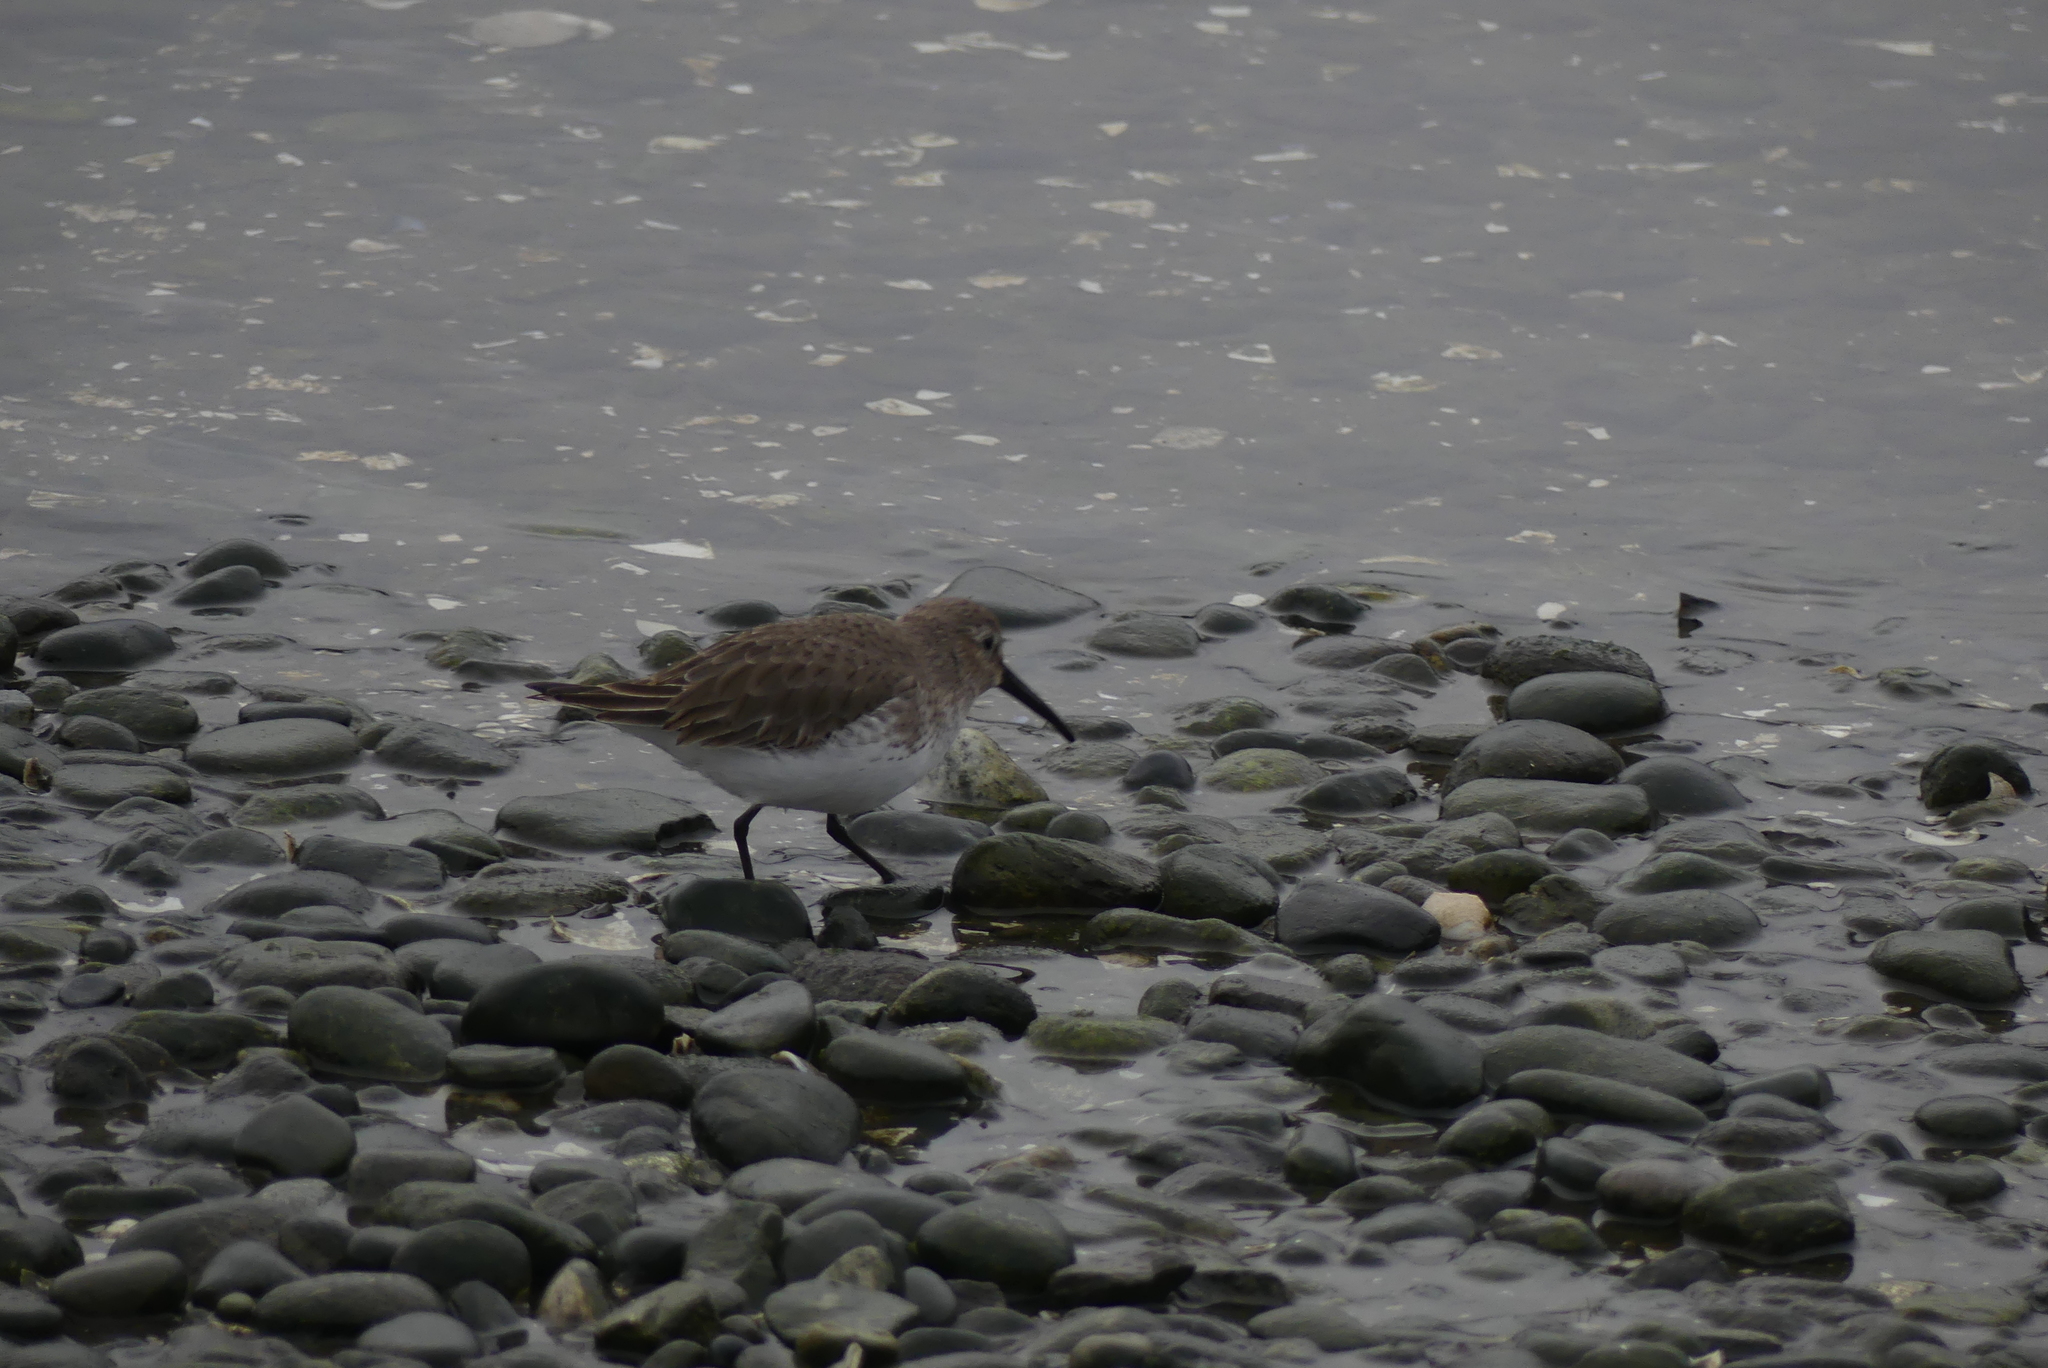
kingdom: Animalia
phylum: Chordata
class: Aves
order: Charadriiformes
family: Scolopacidae
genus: Calidris
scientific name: Calidris alpina
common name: Dunlin
